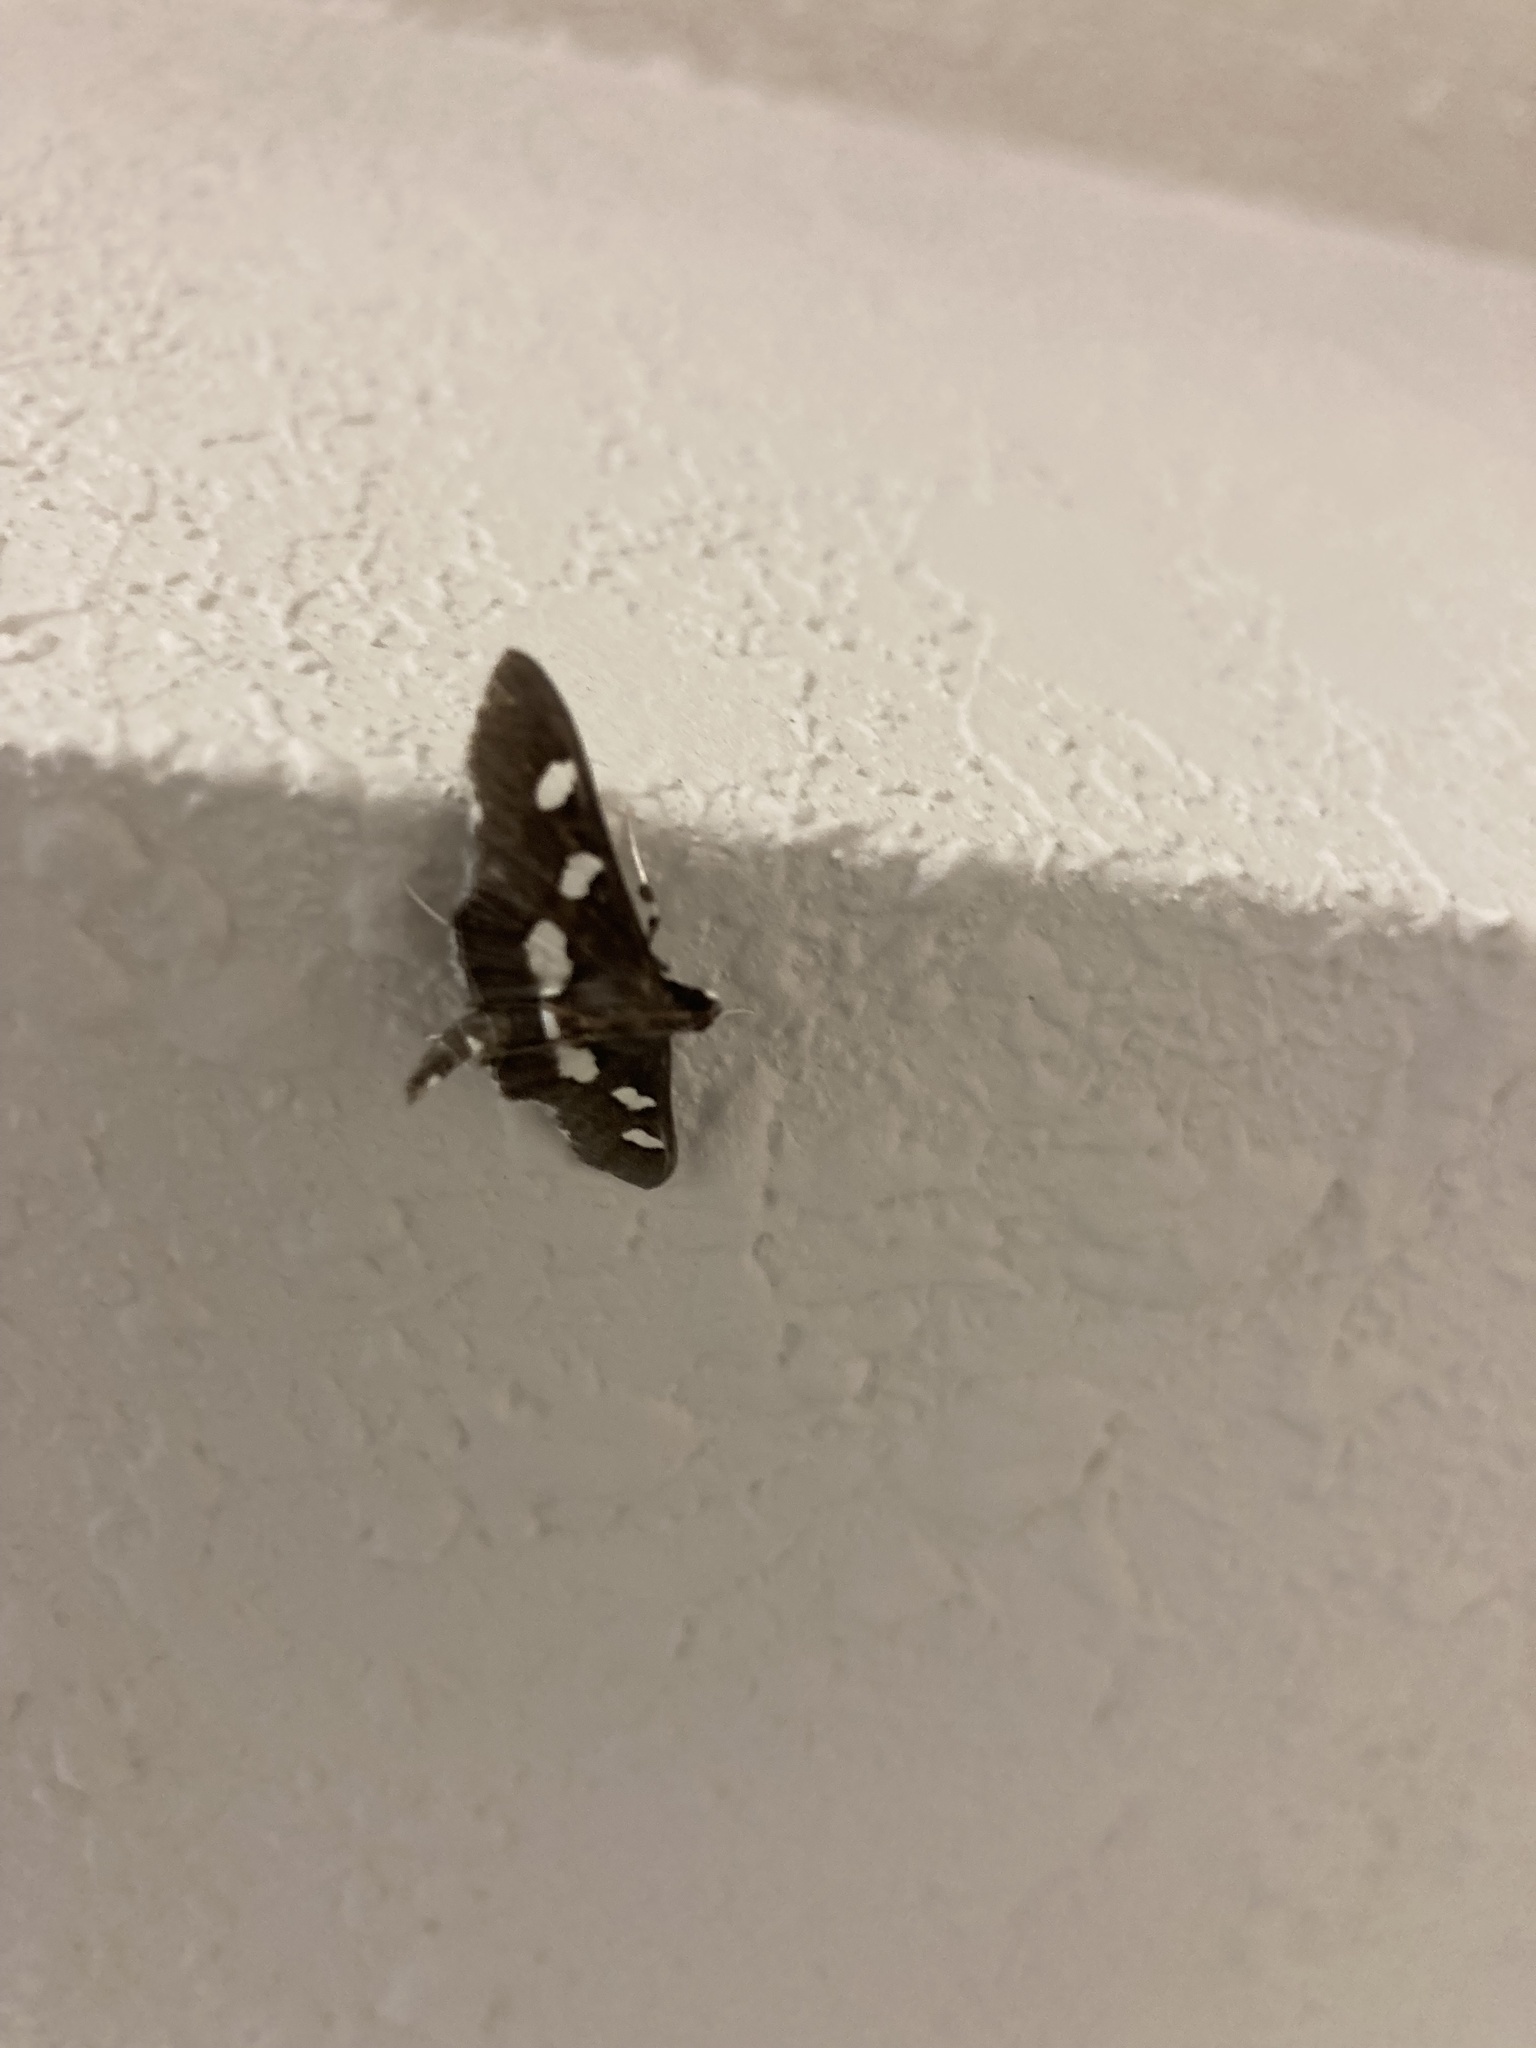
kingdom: Animalia
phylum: Arthropoda
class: Insecta
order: Lepidoptera
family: Crambidae
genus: Desmia
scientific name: Desmia funeralis
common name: Grape leaf folder moth
